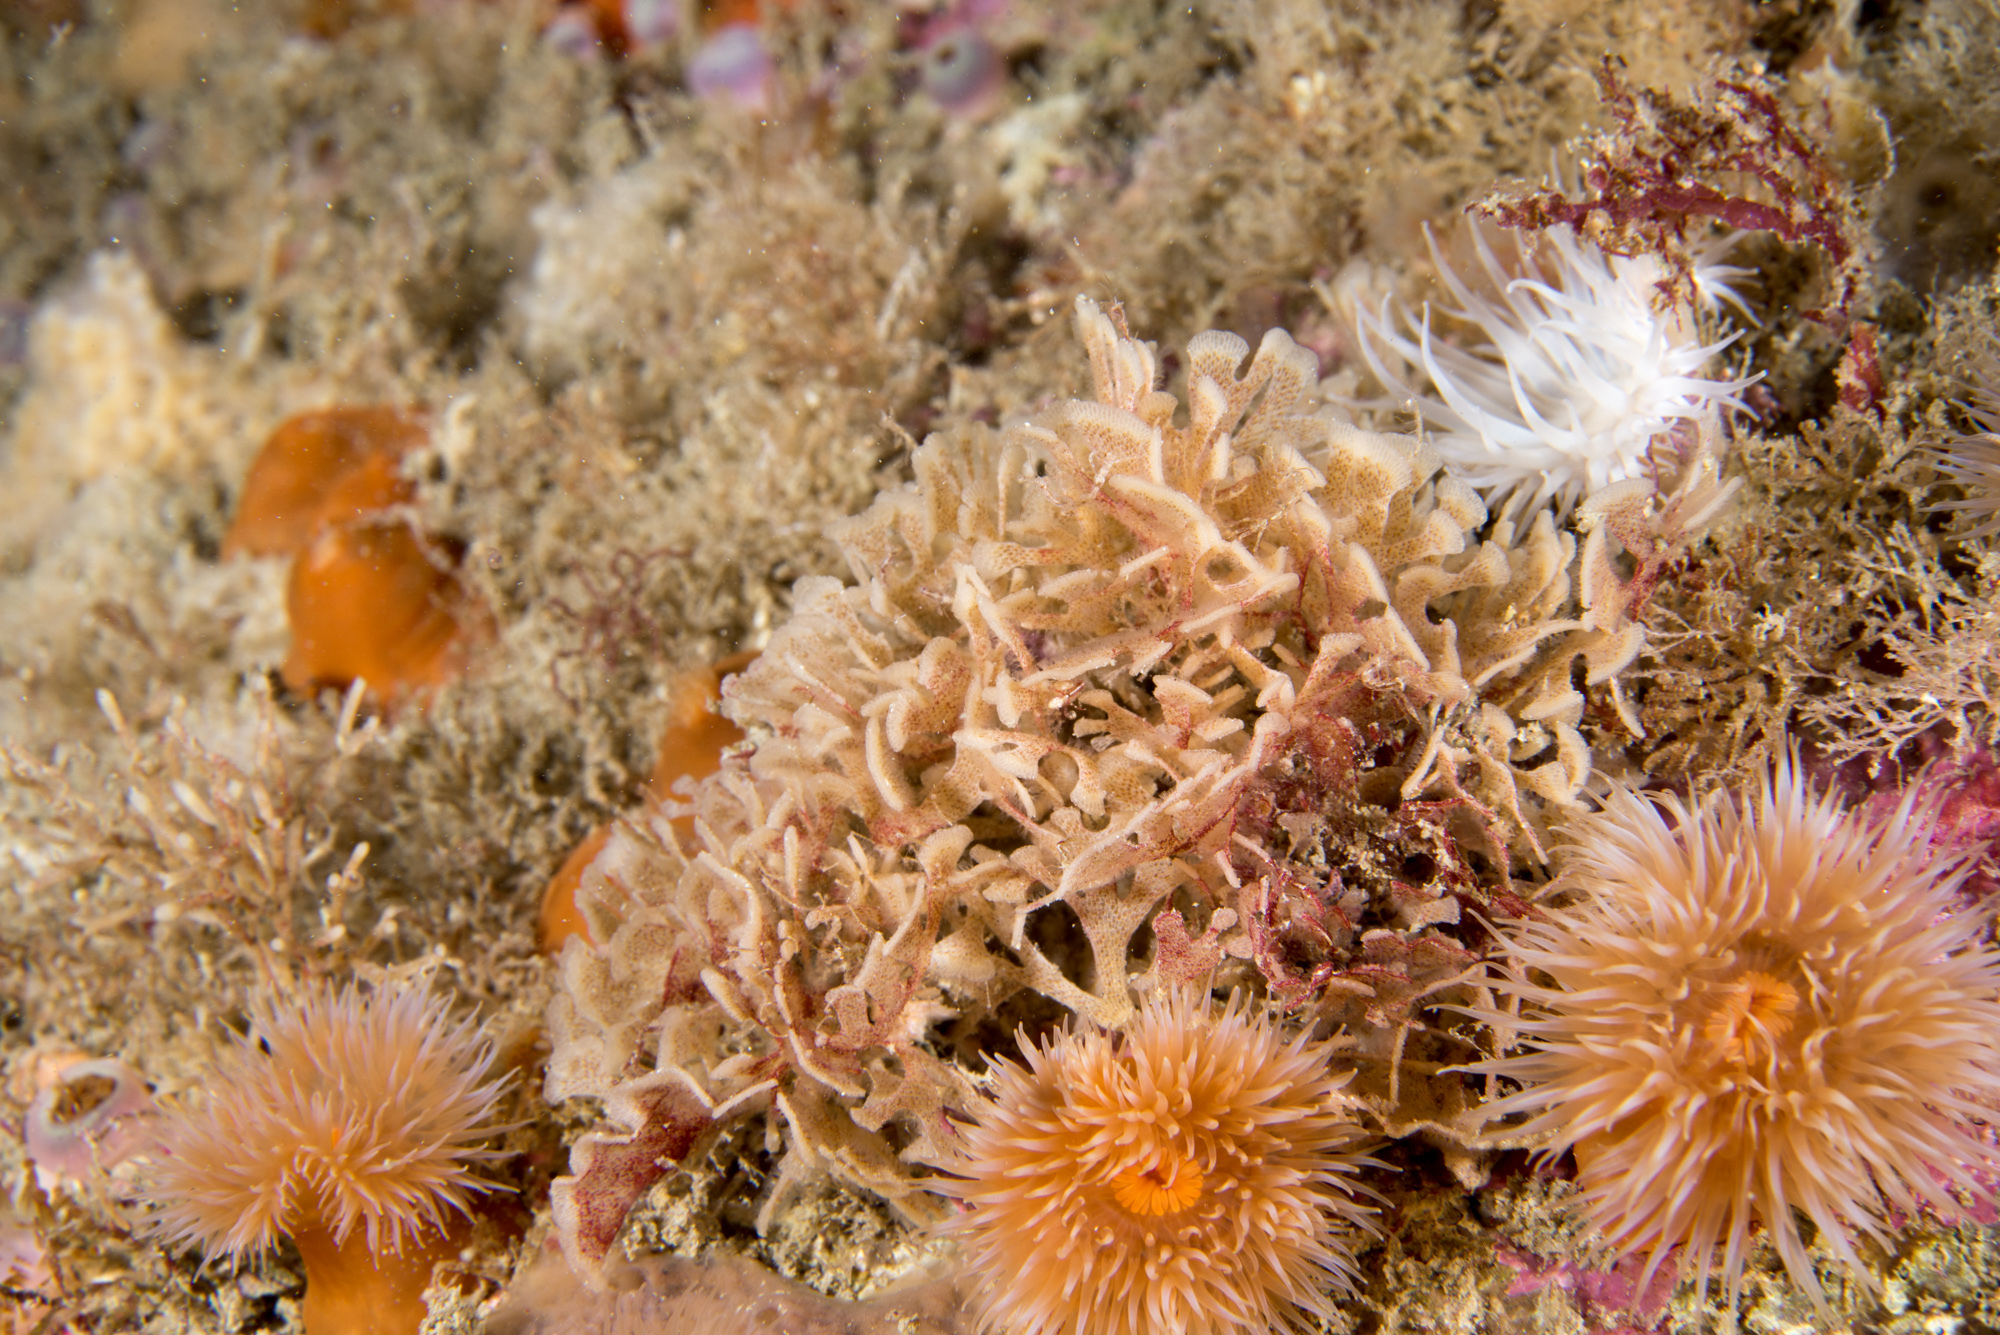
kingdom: Animalia
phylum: Bryozoa
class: Gymnolaemata
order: Cheilostomatida
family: Flustridae
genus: Chartella
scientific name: Chartella papyracea
